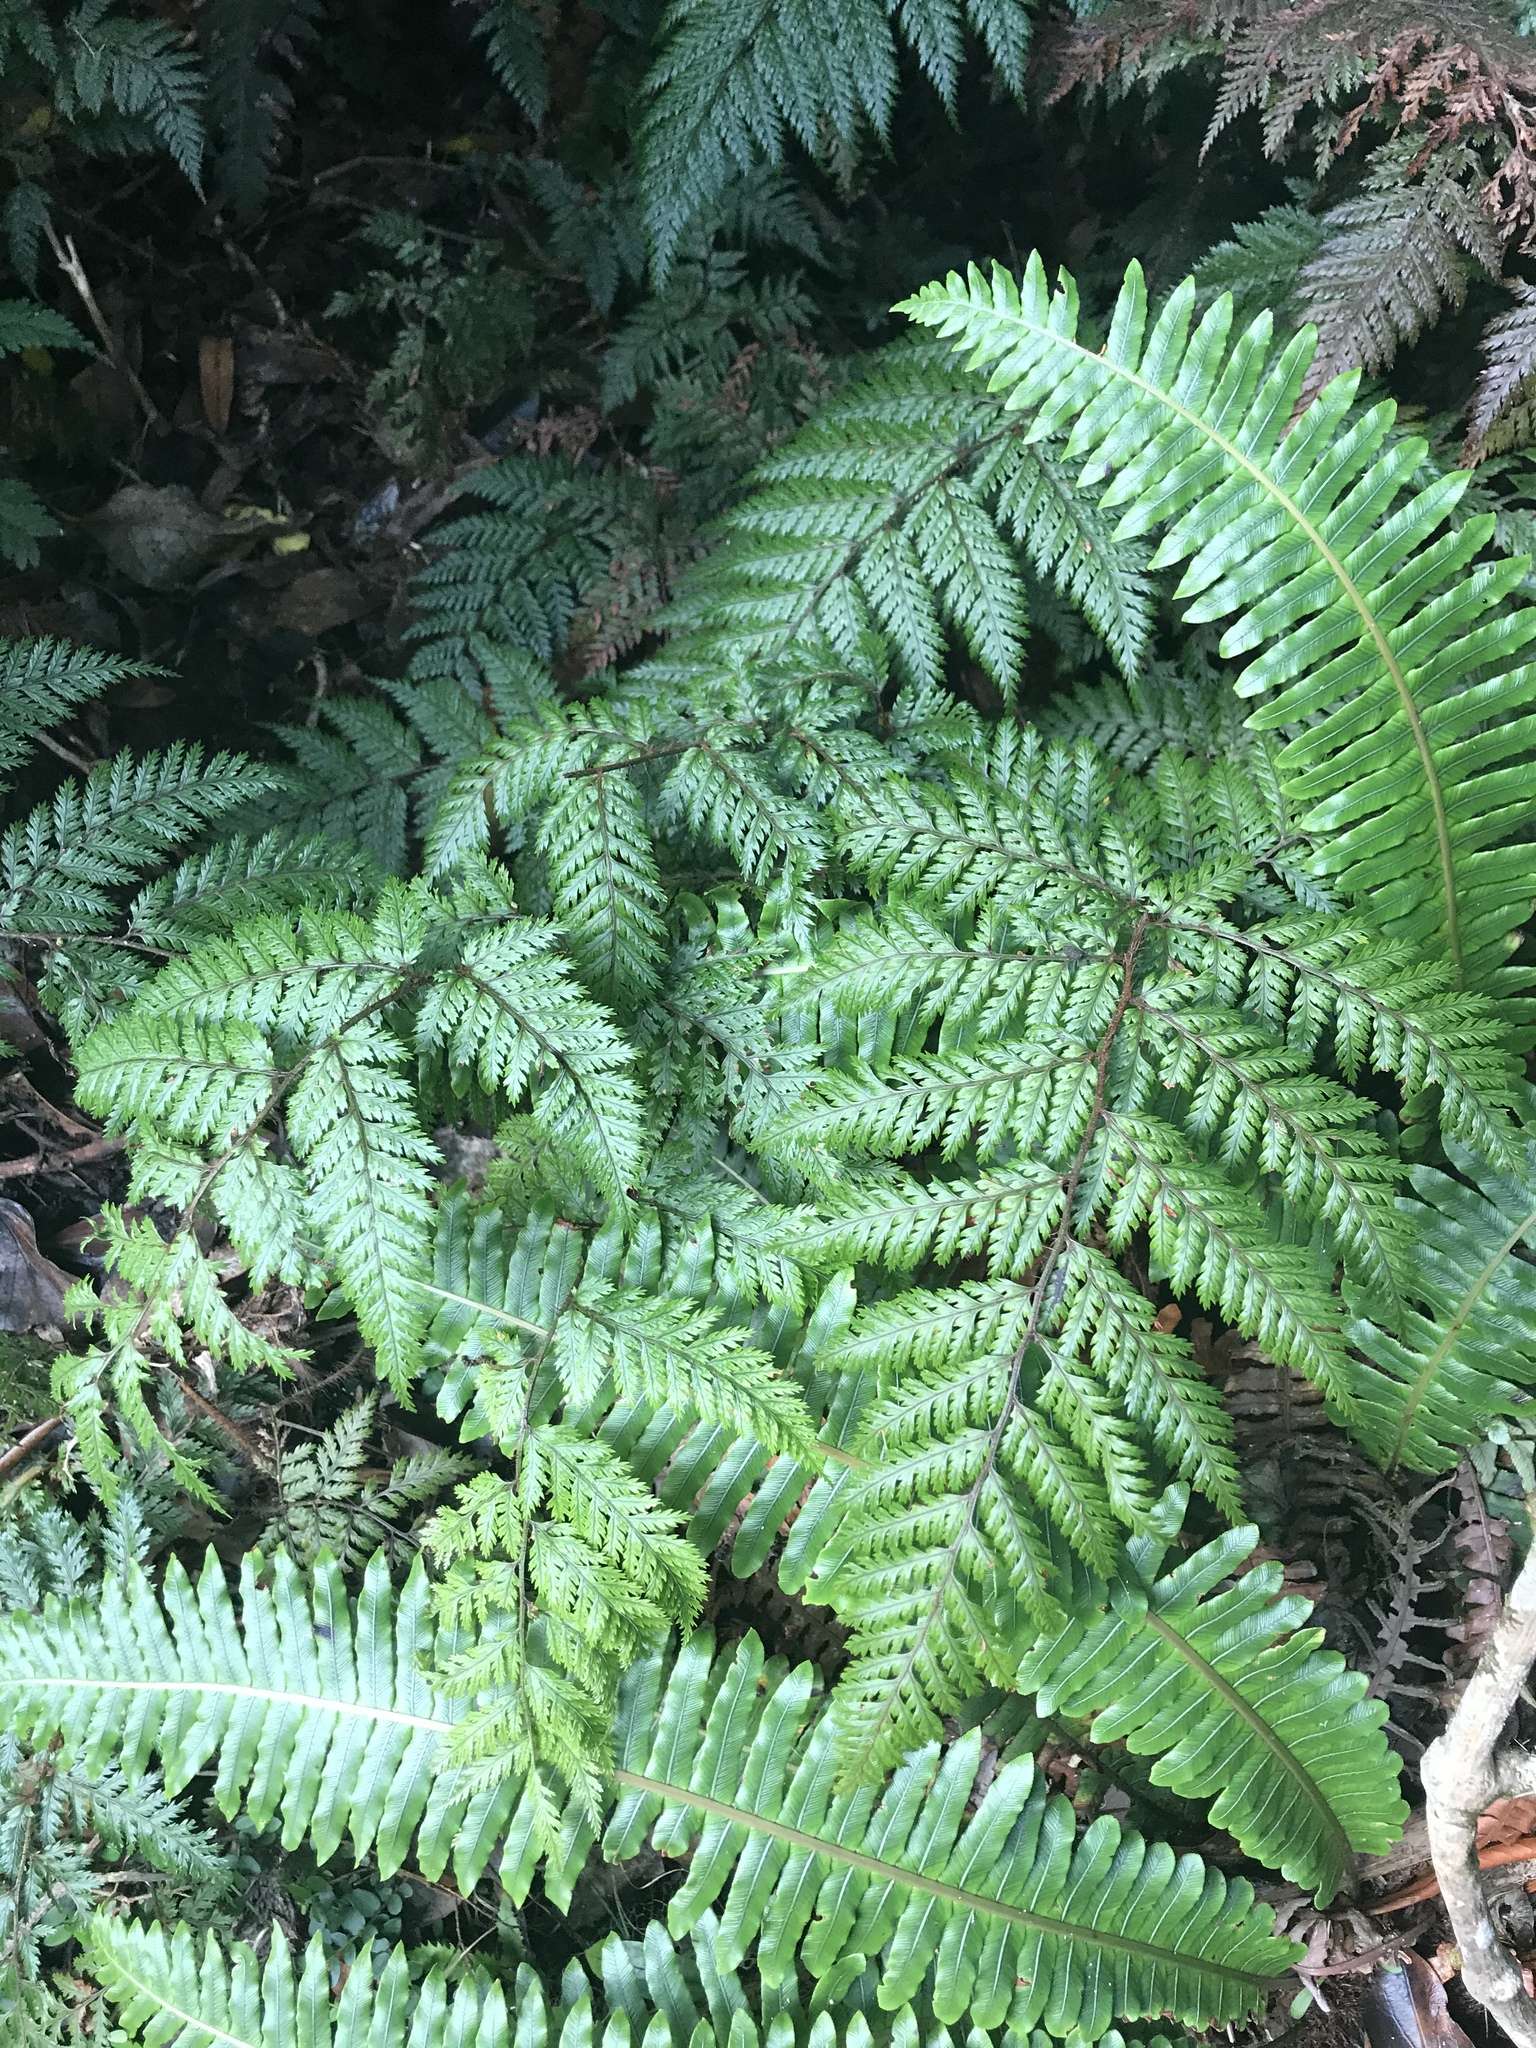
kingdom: Plantae
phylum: Tracheophyta
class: Polypodiopsida
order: Polypodiales
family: Dryopteridaceae
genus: Lastreopsis
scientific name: Lastreopsis hispida
